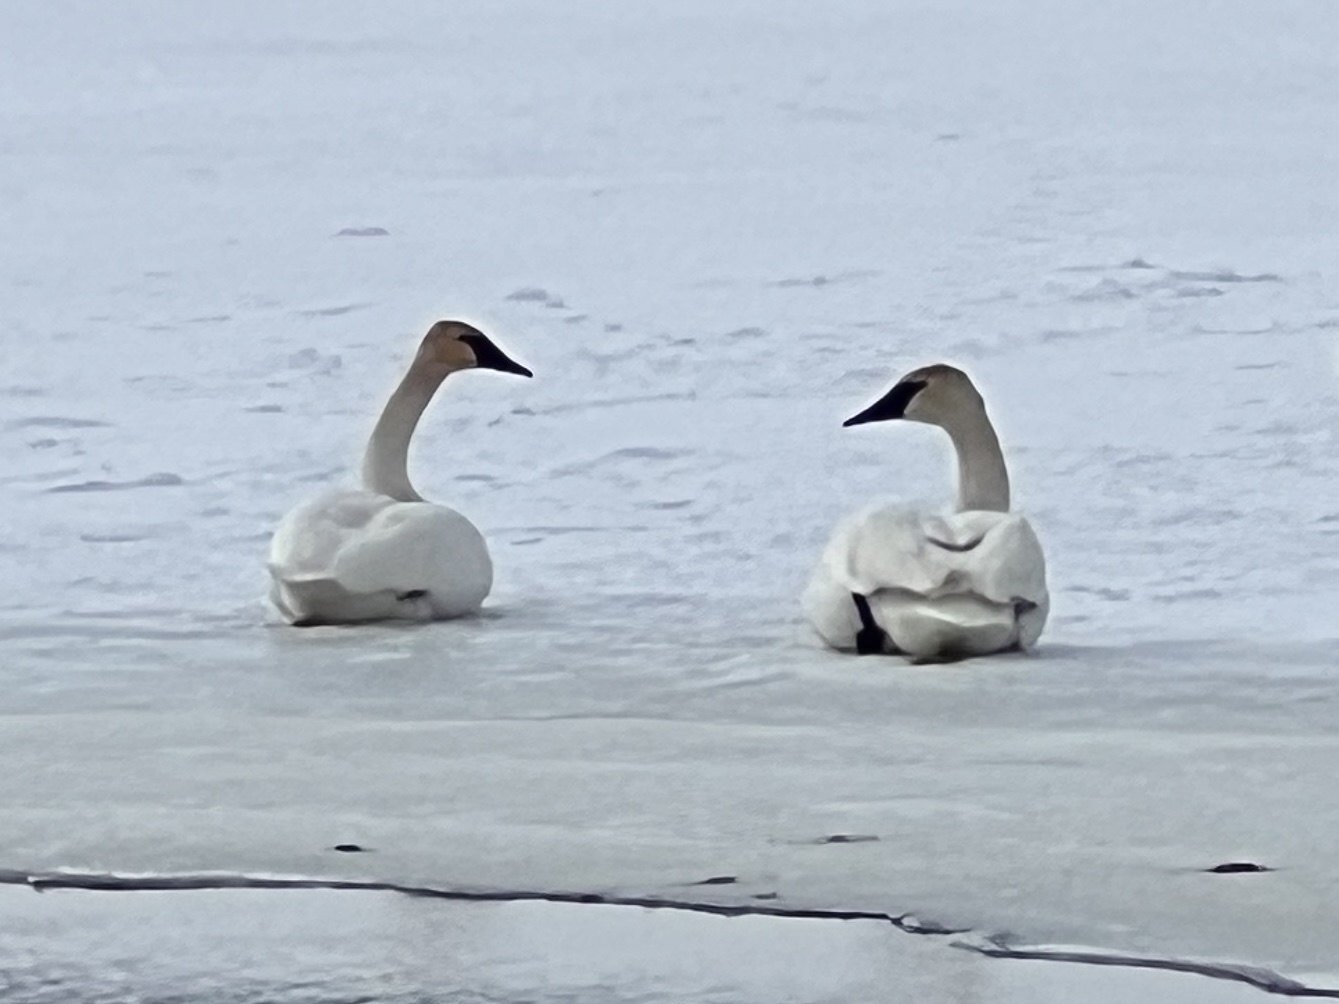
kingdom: Animalia
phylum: Chordata
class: Aves
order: Anseriformes
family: Anatidae
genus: Cygnus
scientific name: Cygnus buccinator
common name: Trumpeter swan
